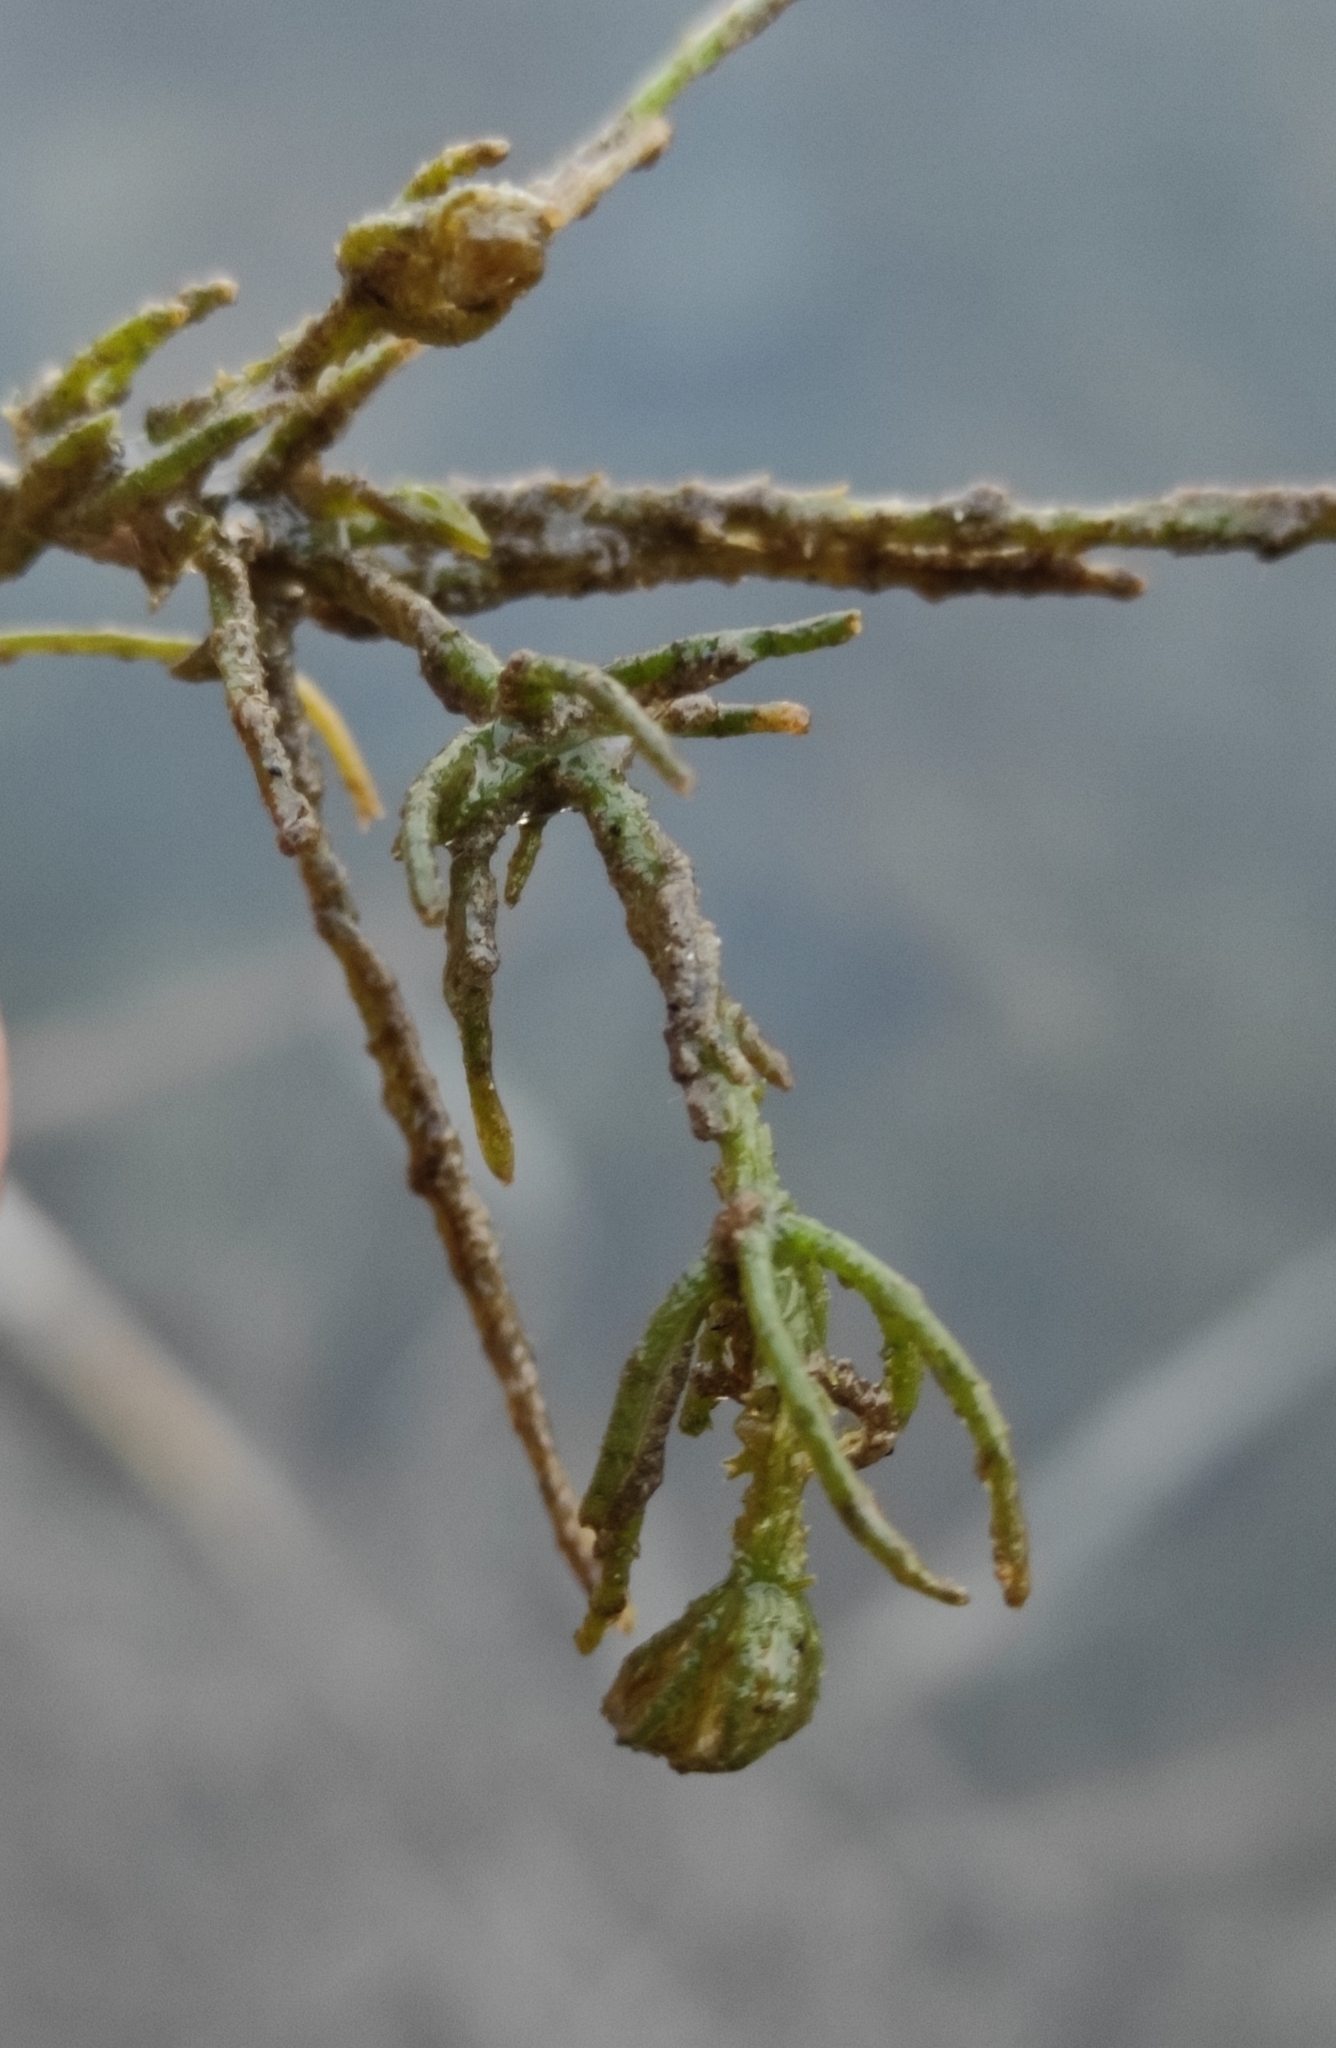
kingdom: Plantae
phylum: Charophyta
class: Charophyceae
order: Charales
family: Characeae
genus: Chara
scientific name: Chara subspinosa
